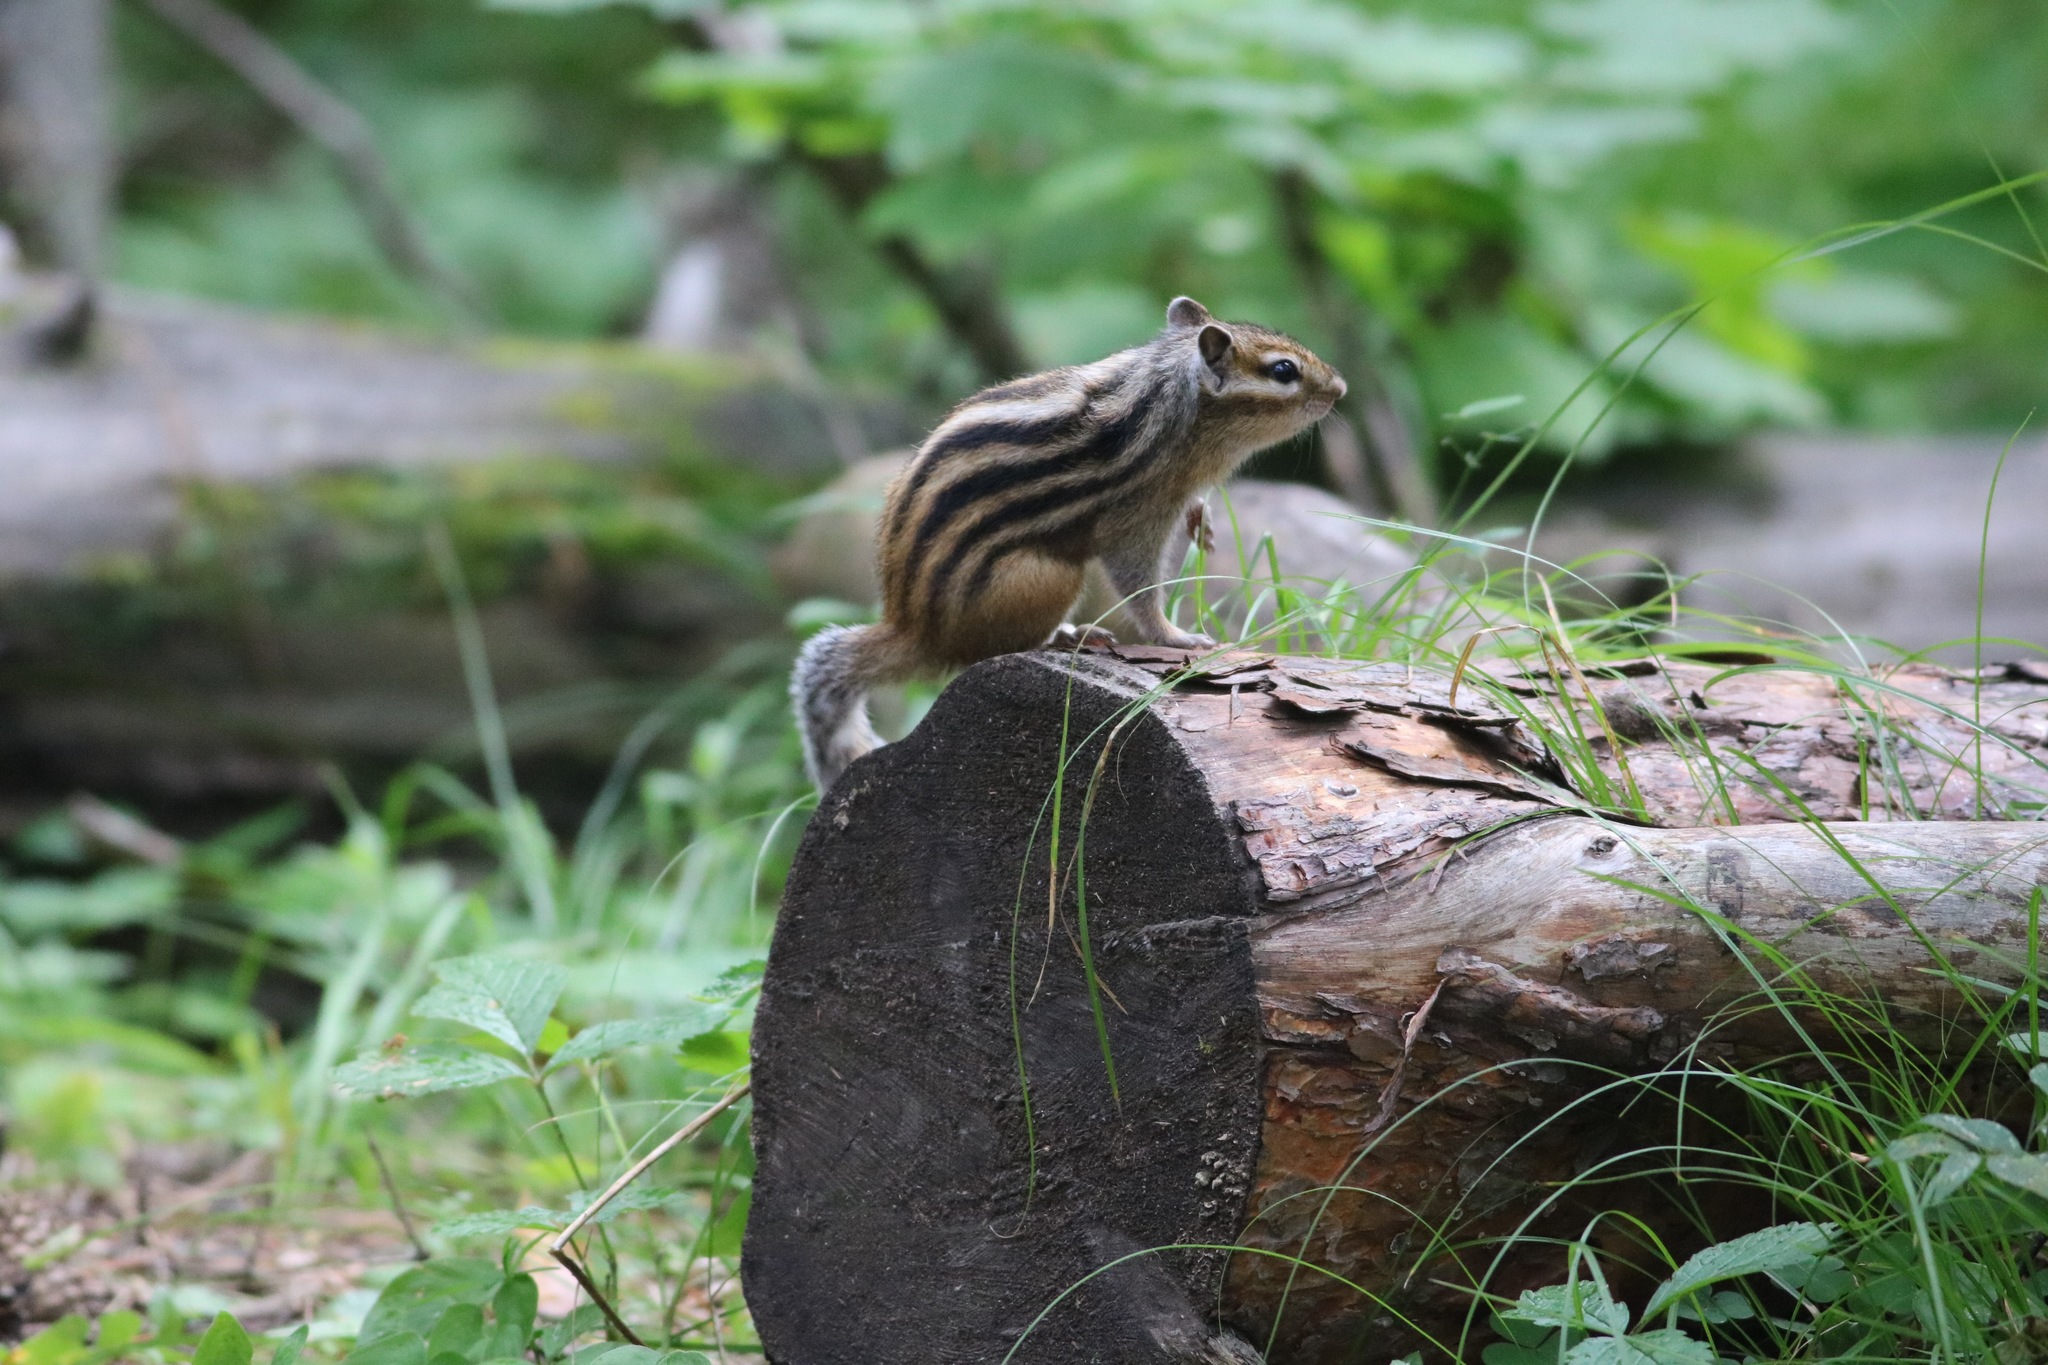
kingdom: Animalia
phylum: Chordata
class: Mammalia
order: Rodentia
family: Sciuridae
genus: Tamias
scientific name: Tamias sibiricus
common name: Siberian chipmunk
